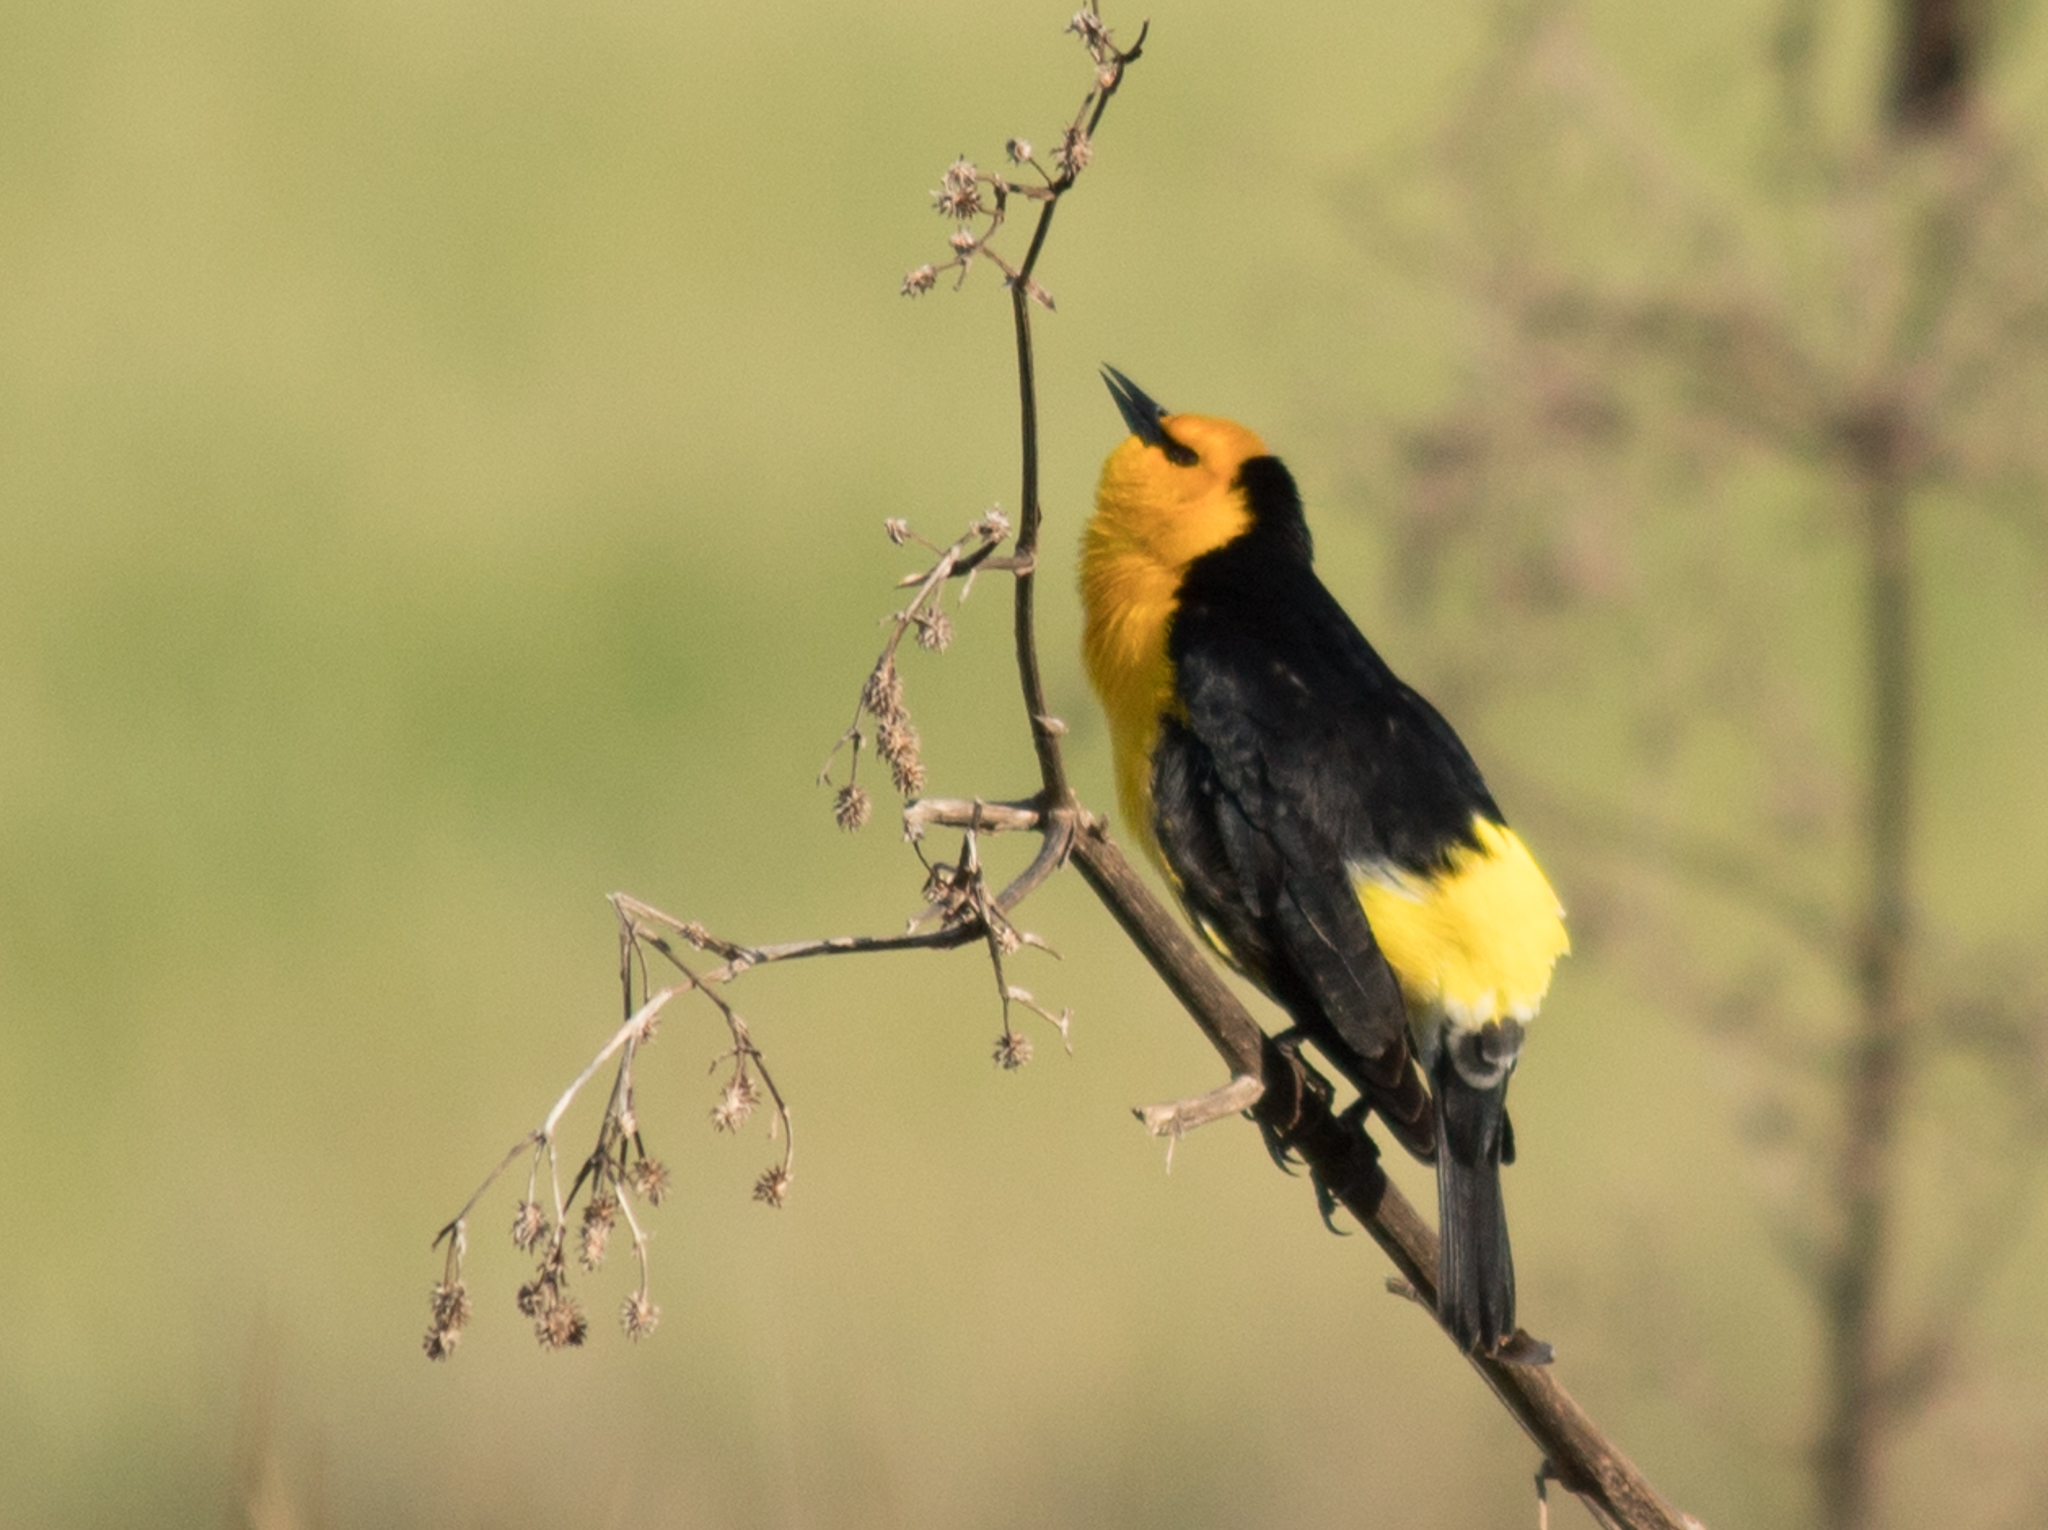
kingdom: Animalia
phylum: Chordata
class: Aves
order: Passeriformes
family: Icteridae
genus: Xanthopsar
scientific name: Xanthopsar flavus
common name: Saffron-cowled blackbird
